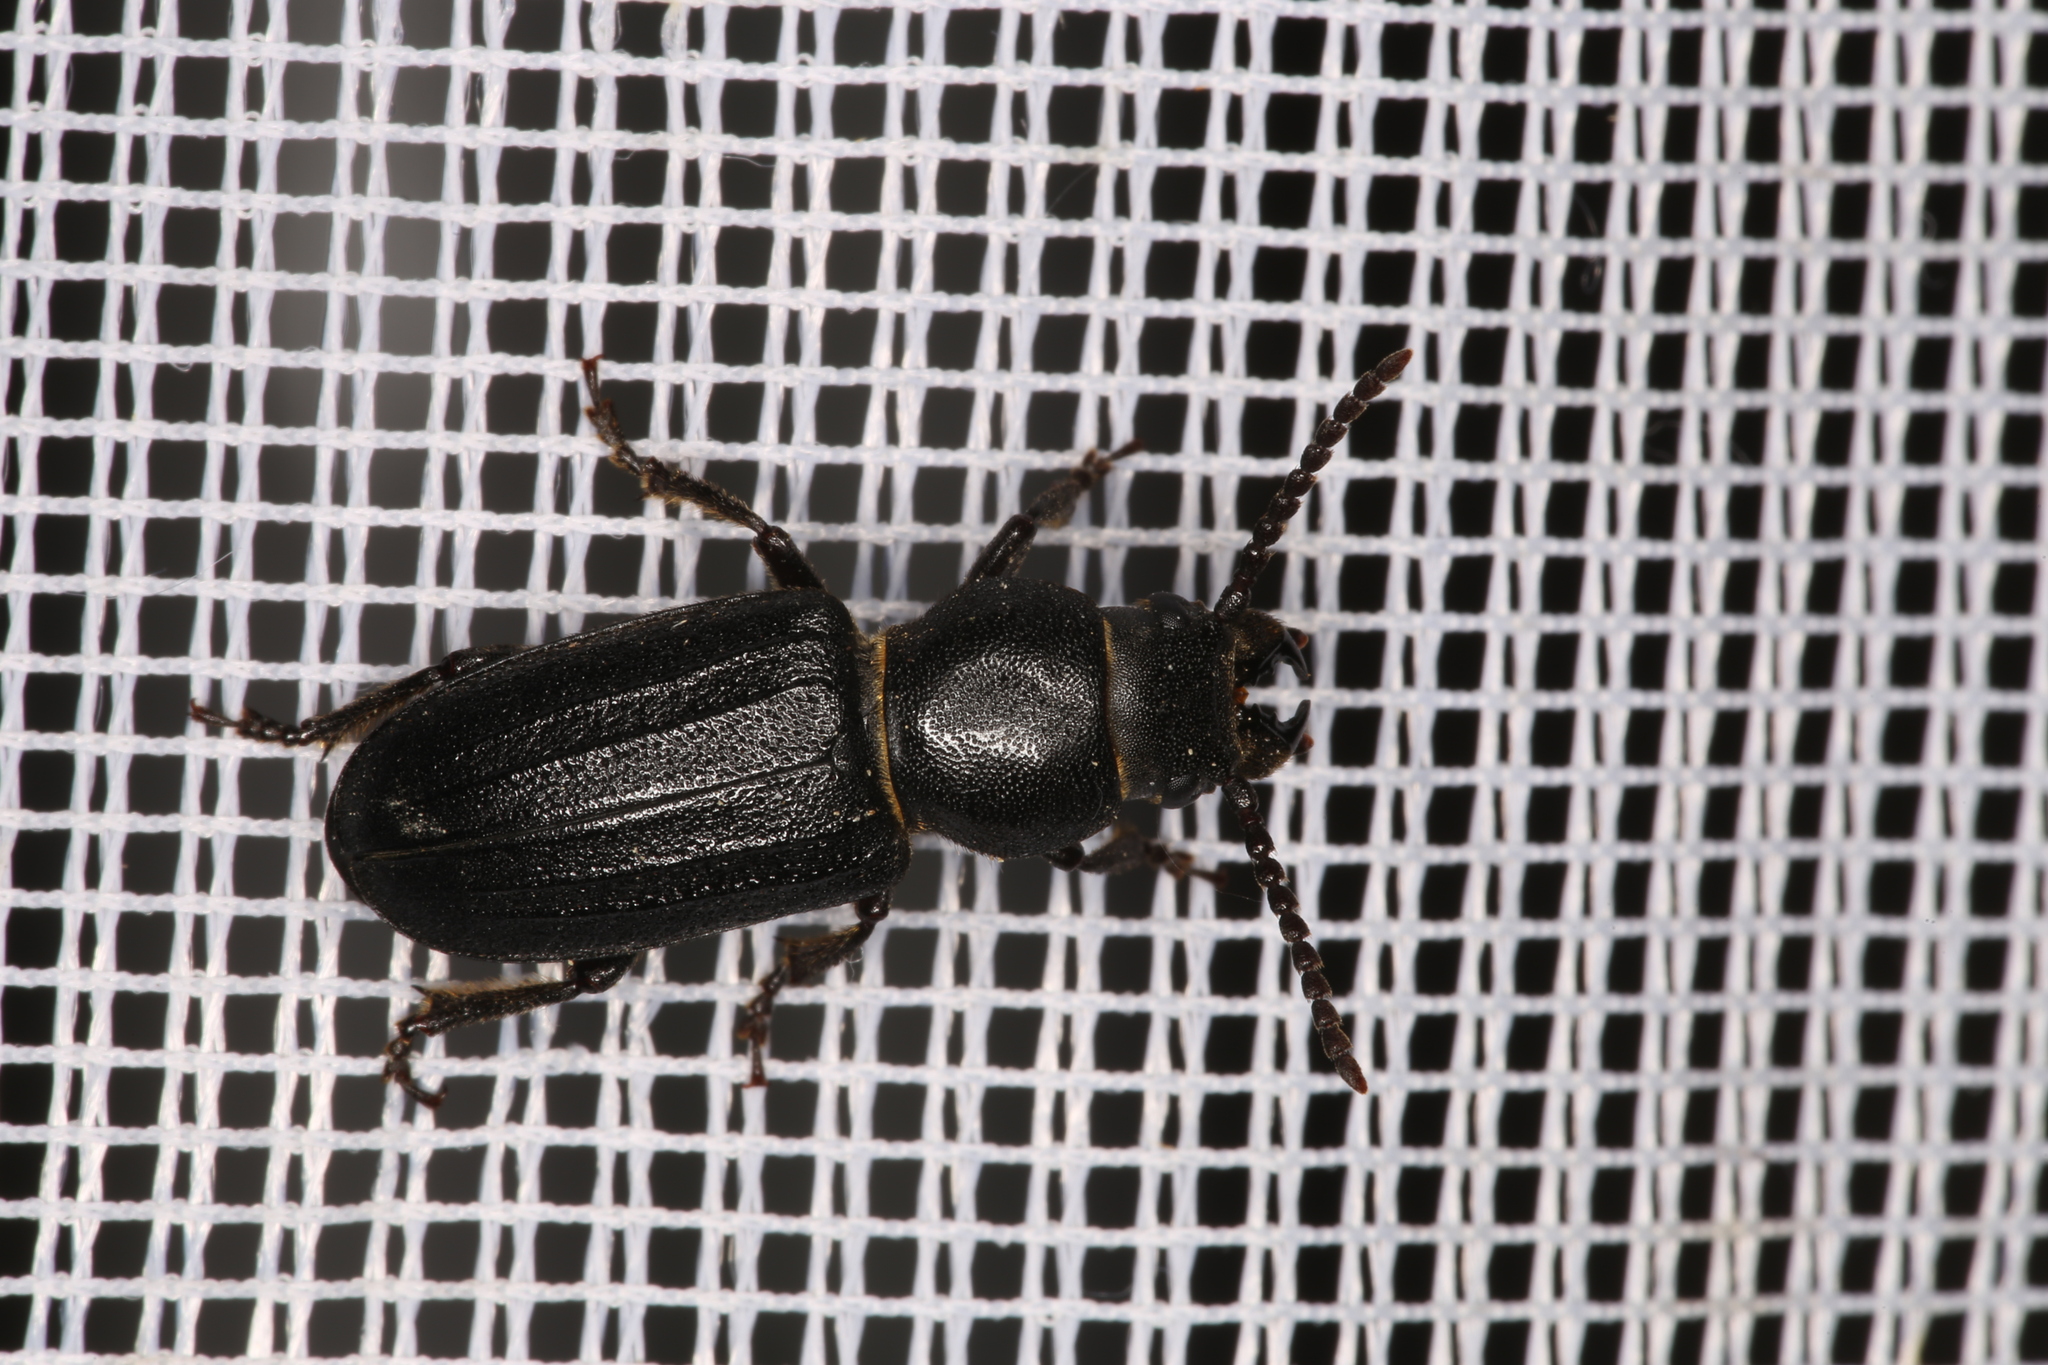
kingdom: Animalia
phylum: Arthropoda
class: Insecta
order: Coleoptera
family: Cerambycidae
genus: Spondylis
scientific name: Spondylis buprestoides
